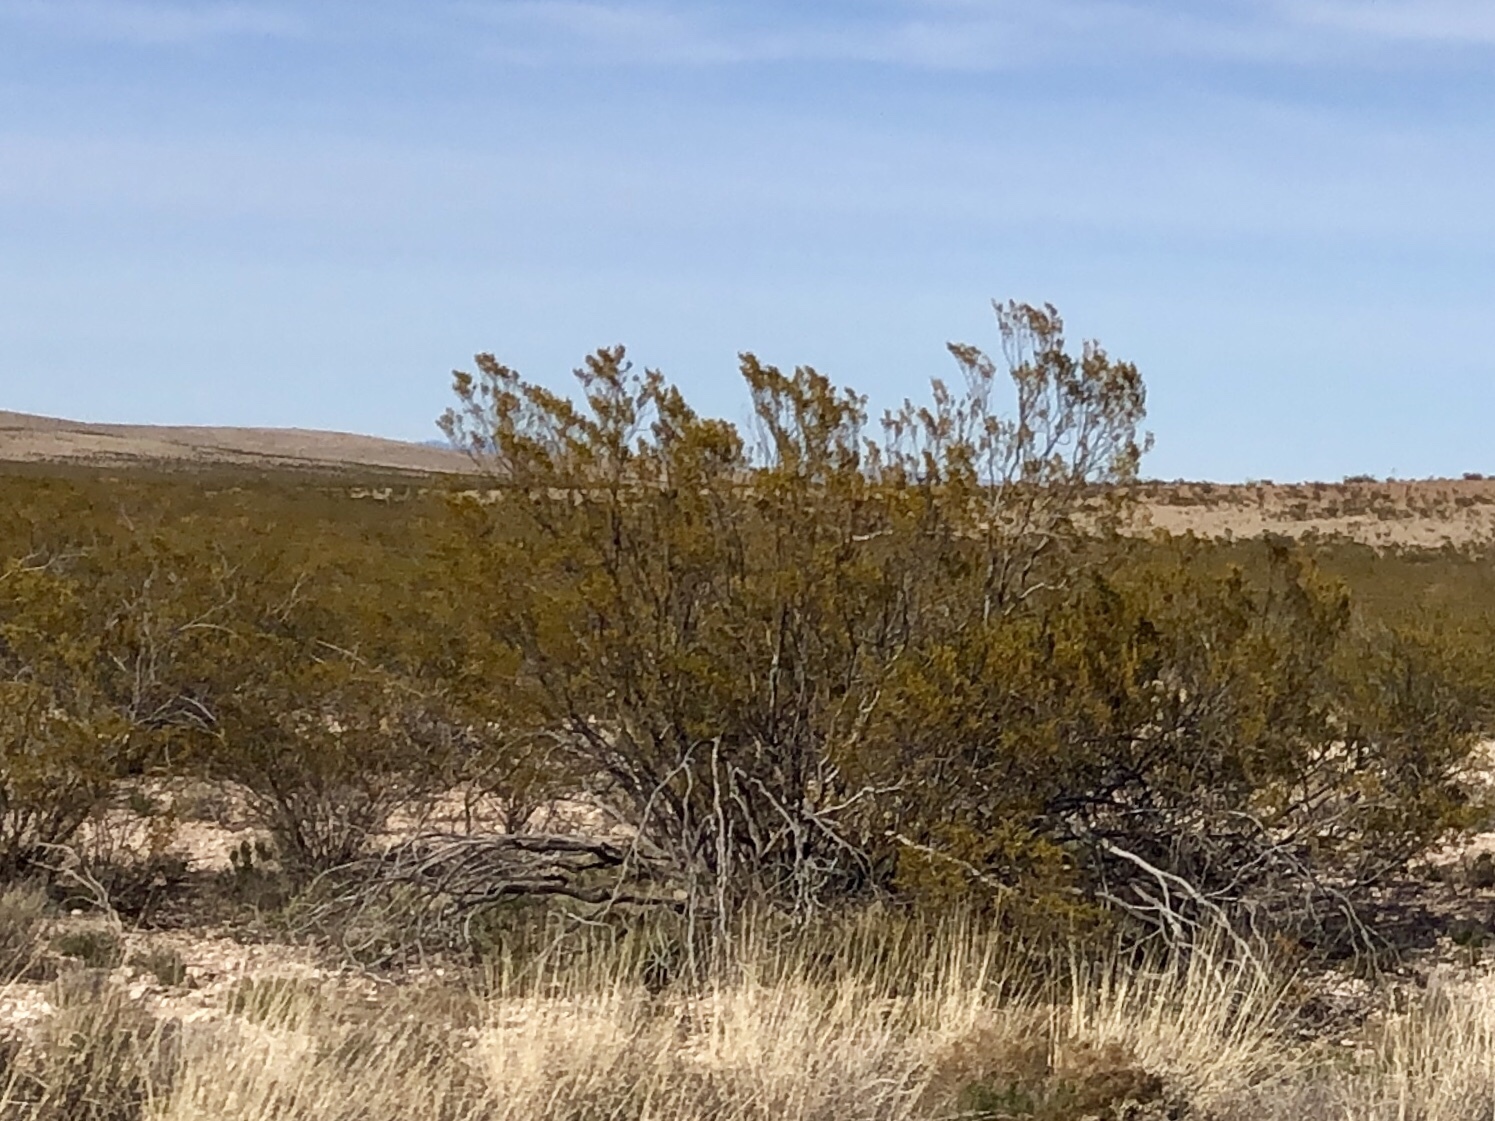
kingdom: Plantae
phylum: Tracheophyta
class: Magnoliopsida
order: Zygophyllales
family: Zygophyllaceae
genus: Larrea
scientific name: Larrea tridentata
